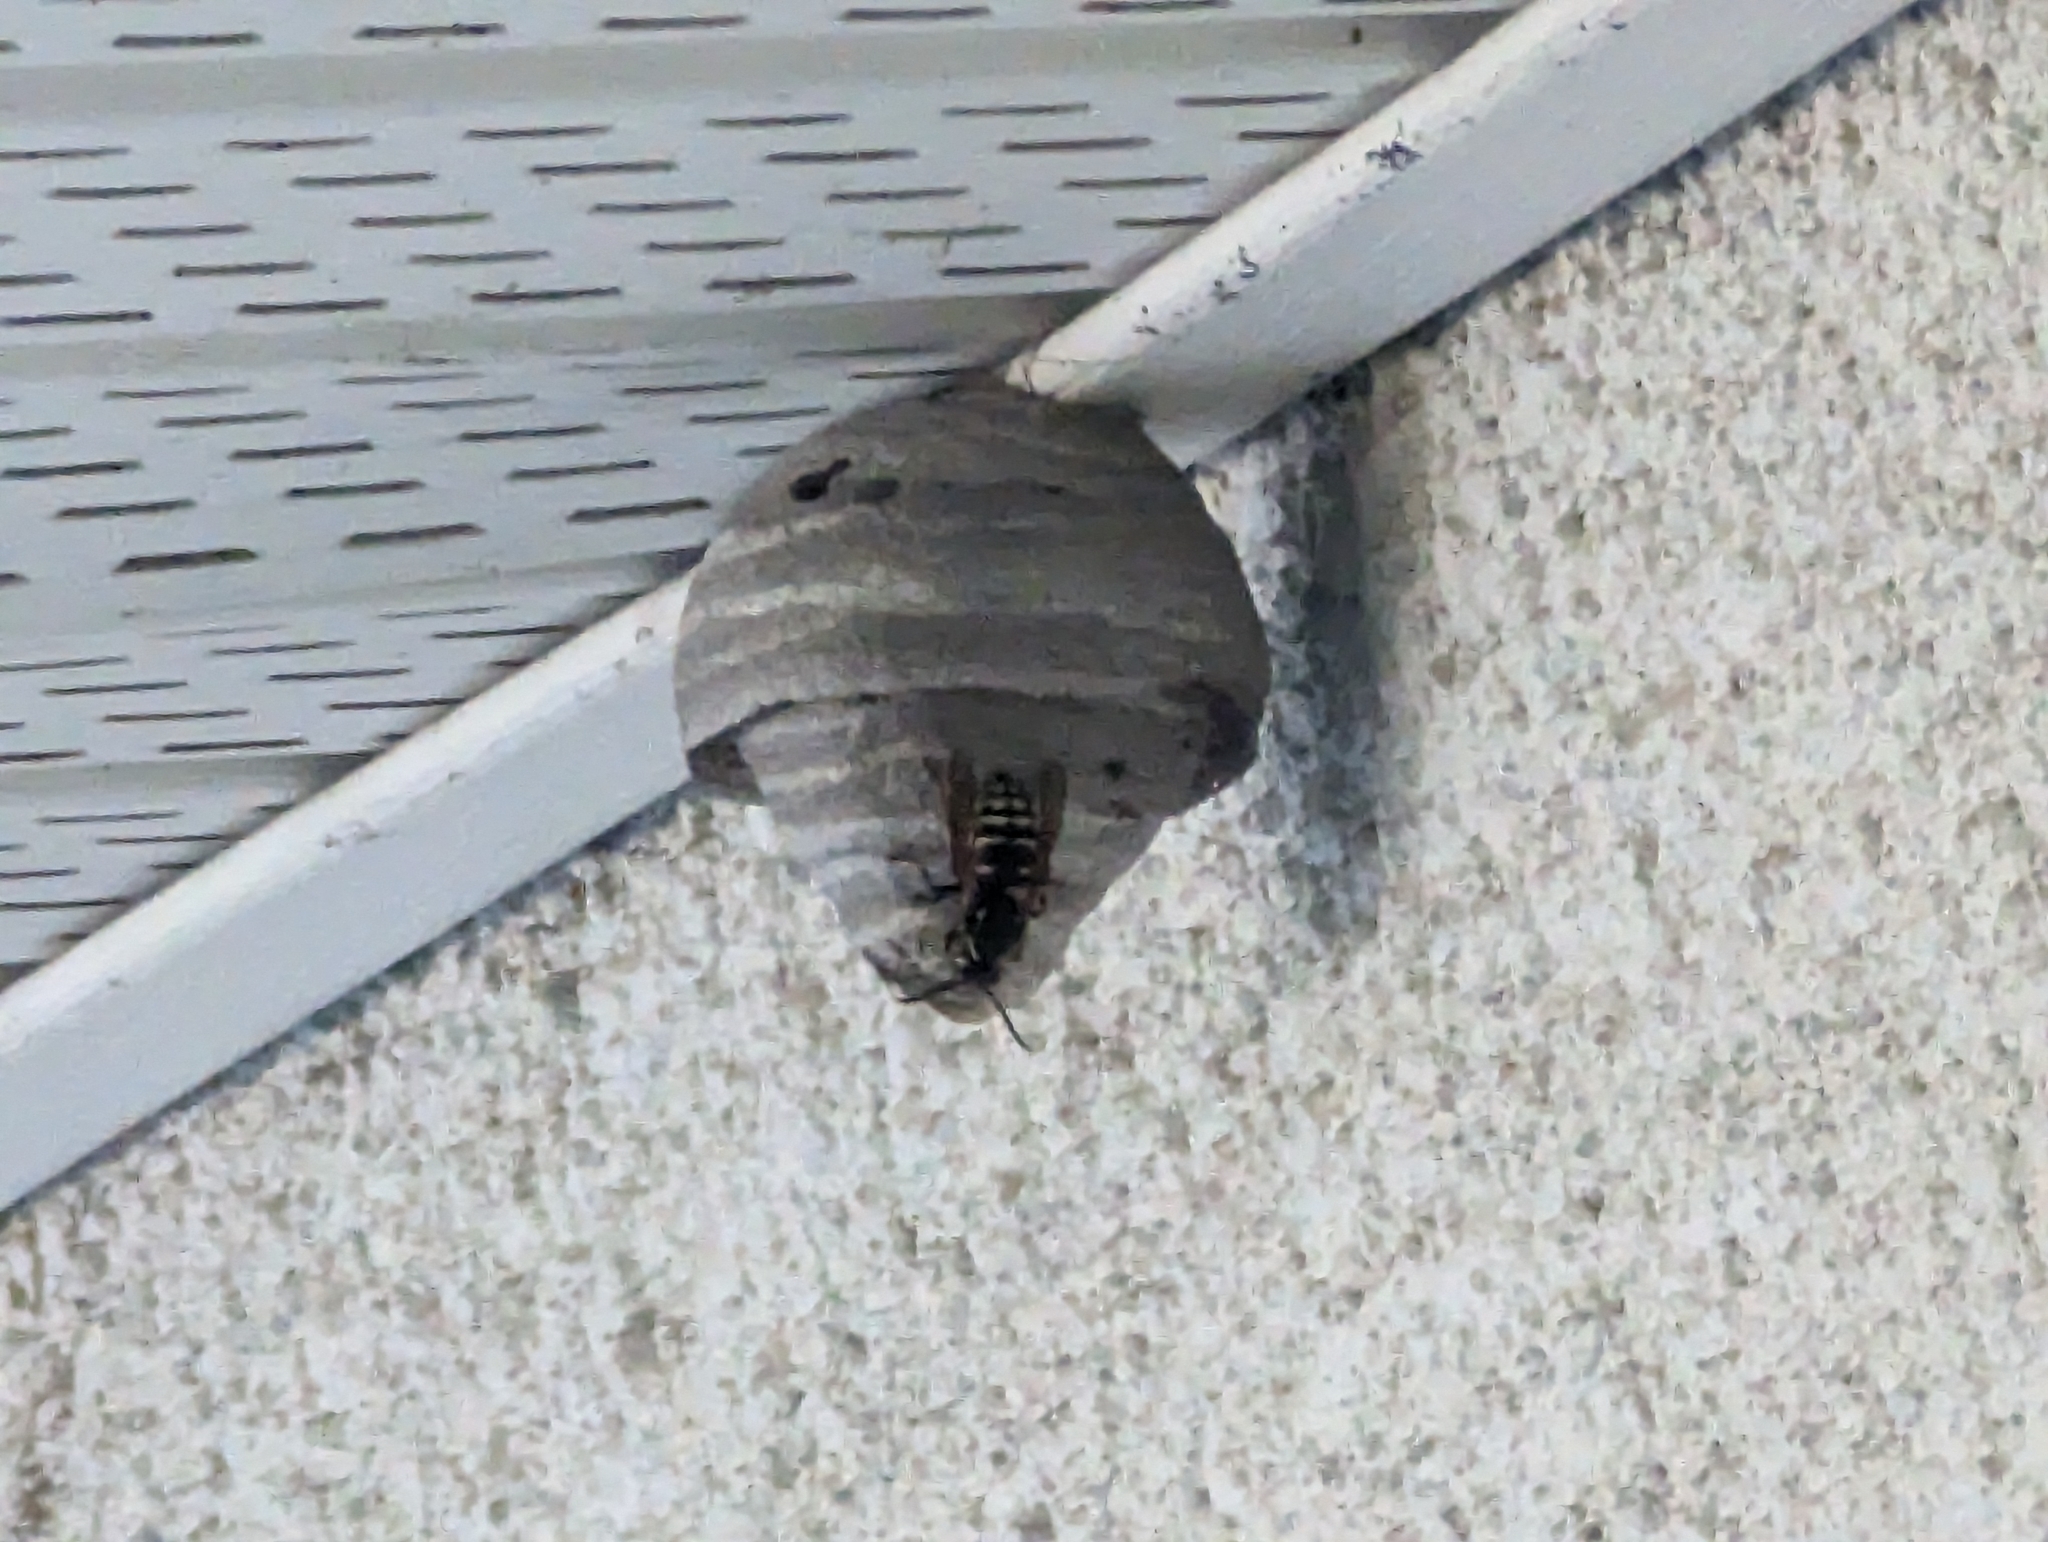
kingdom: Animalia
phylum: Arthropoda
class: Insecta
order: Hymenoptera
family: Vespidae
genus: Dolichovespula
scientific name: Dolichovespula adulterina
